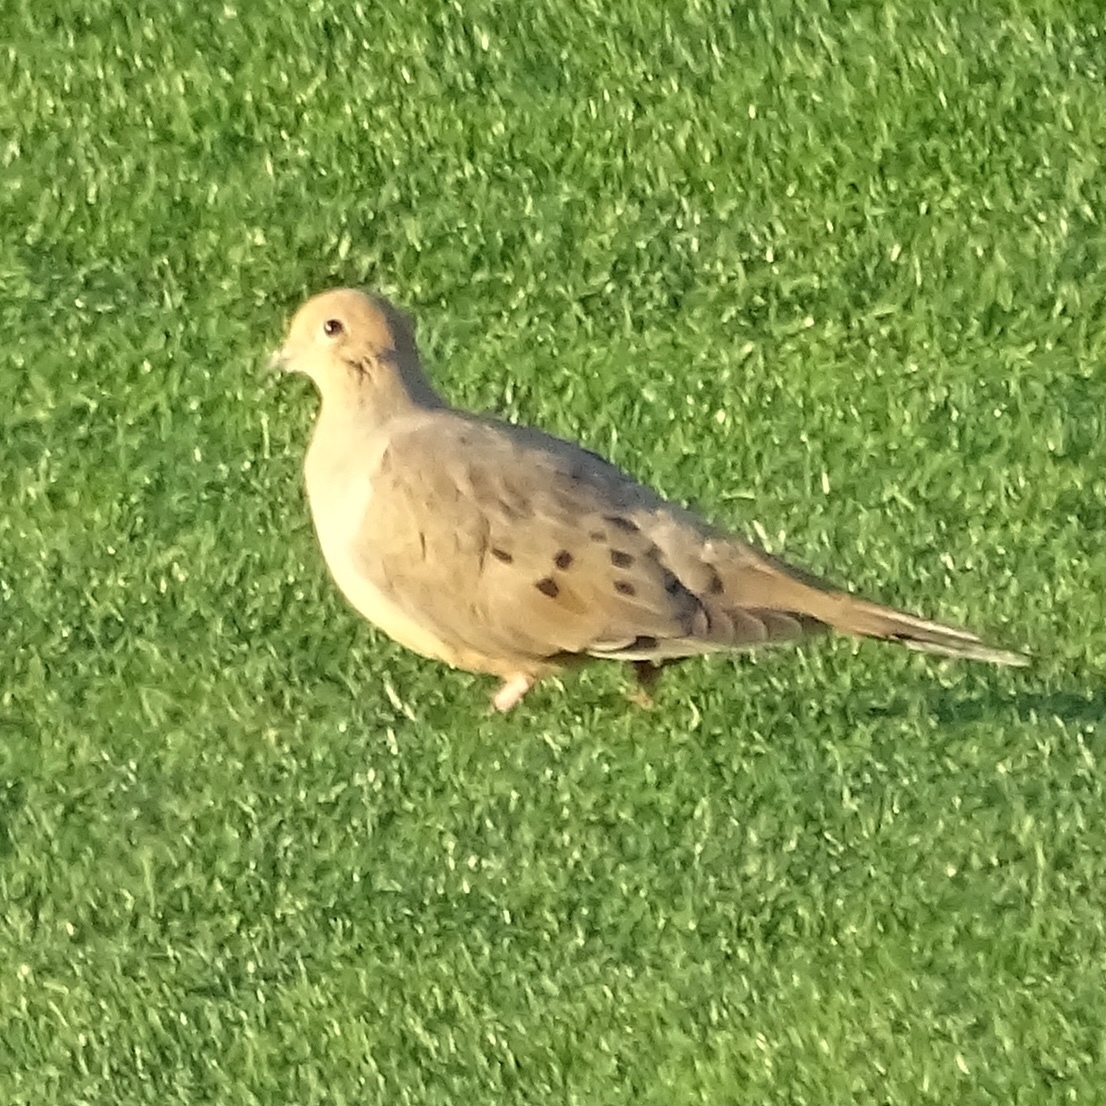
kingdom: Animalia
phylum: Chordata
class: Aves
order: Columbiformes
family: Columbidae
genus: Zenaida
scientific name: Zenaida macroura
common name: Mourning dove
